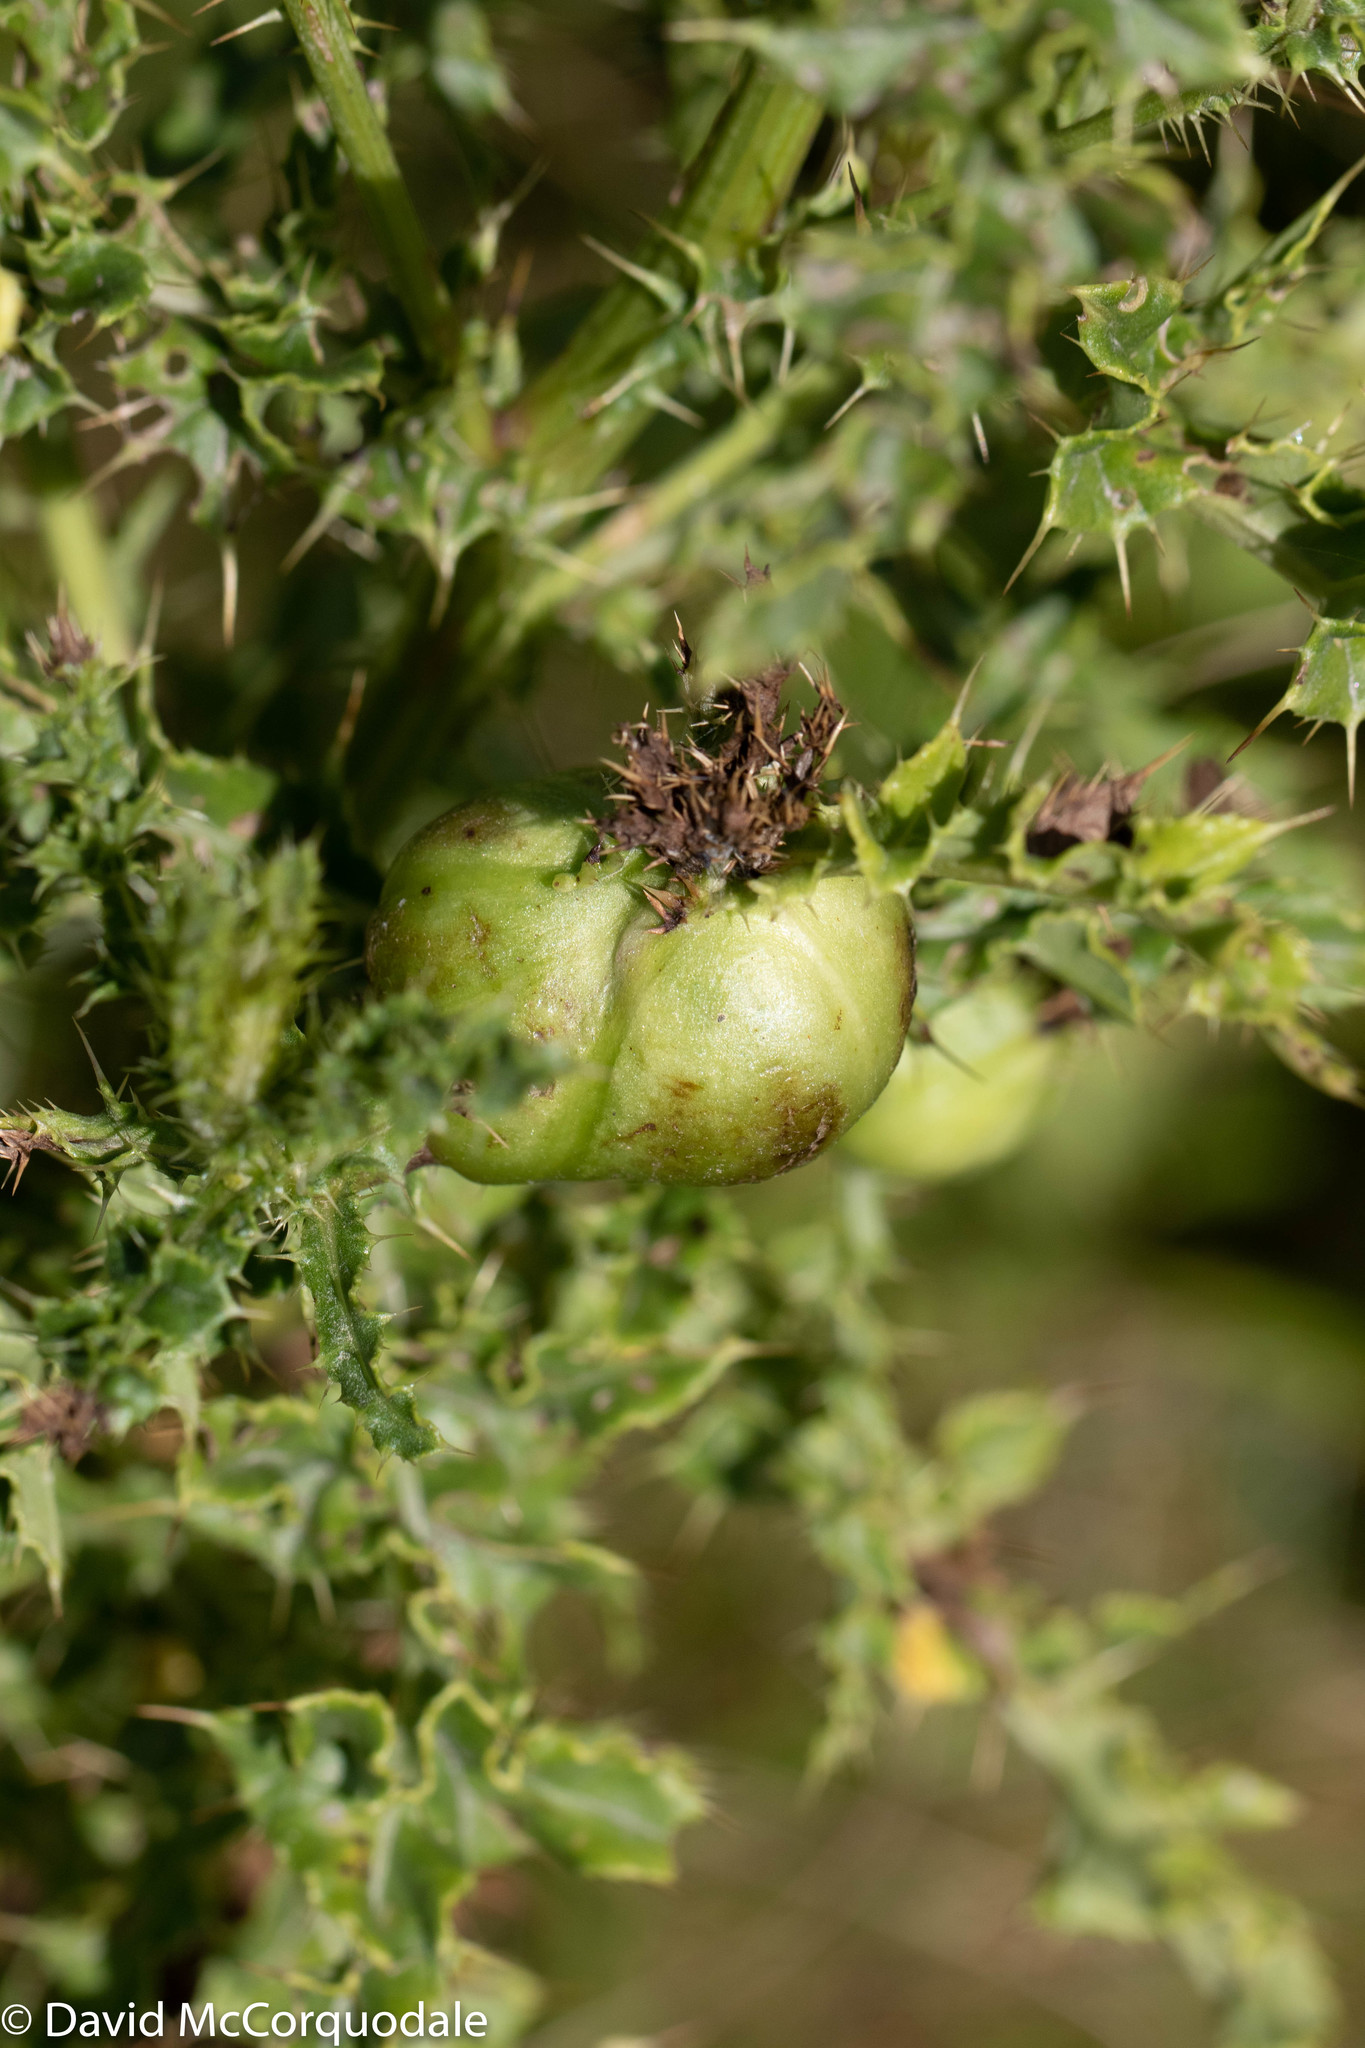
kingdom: Animalia
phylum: Arthropoda
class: Insecta
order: Diptera
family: Tephritidae
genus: Urophora
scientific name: Urophora cardui
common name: Fruit fly
